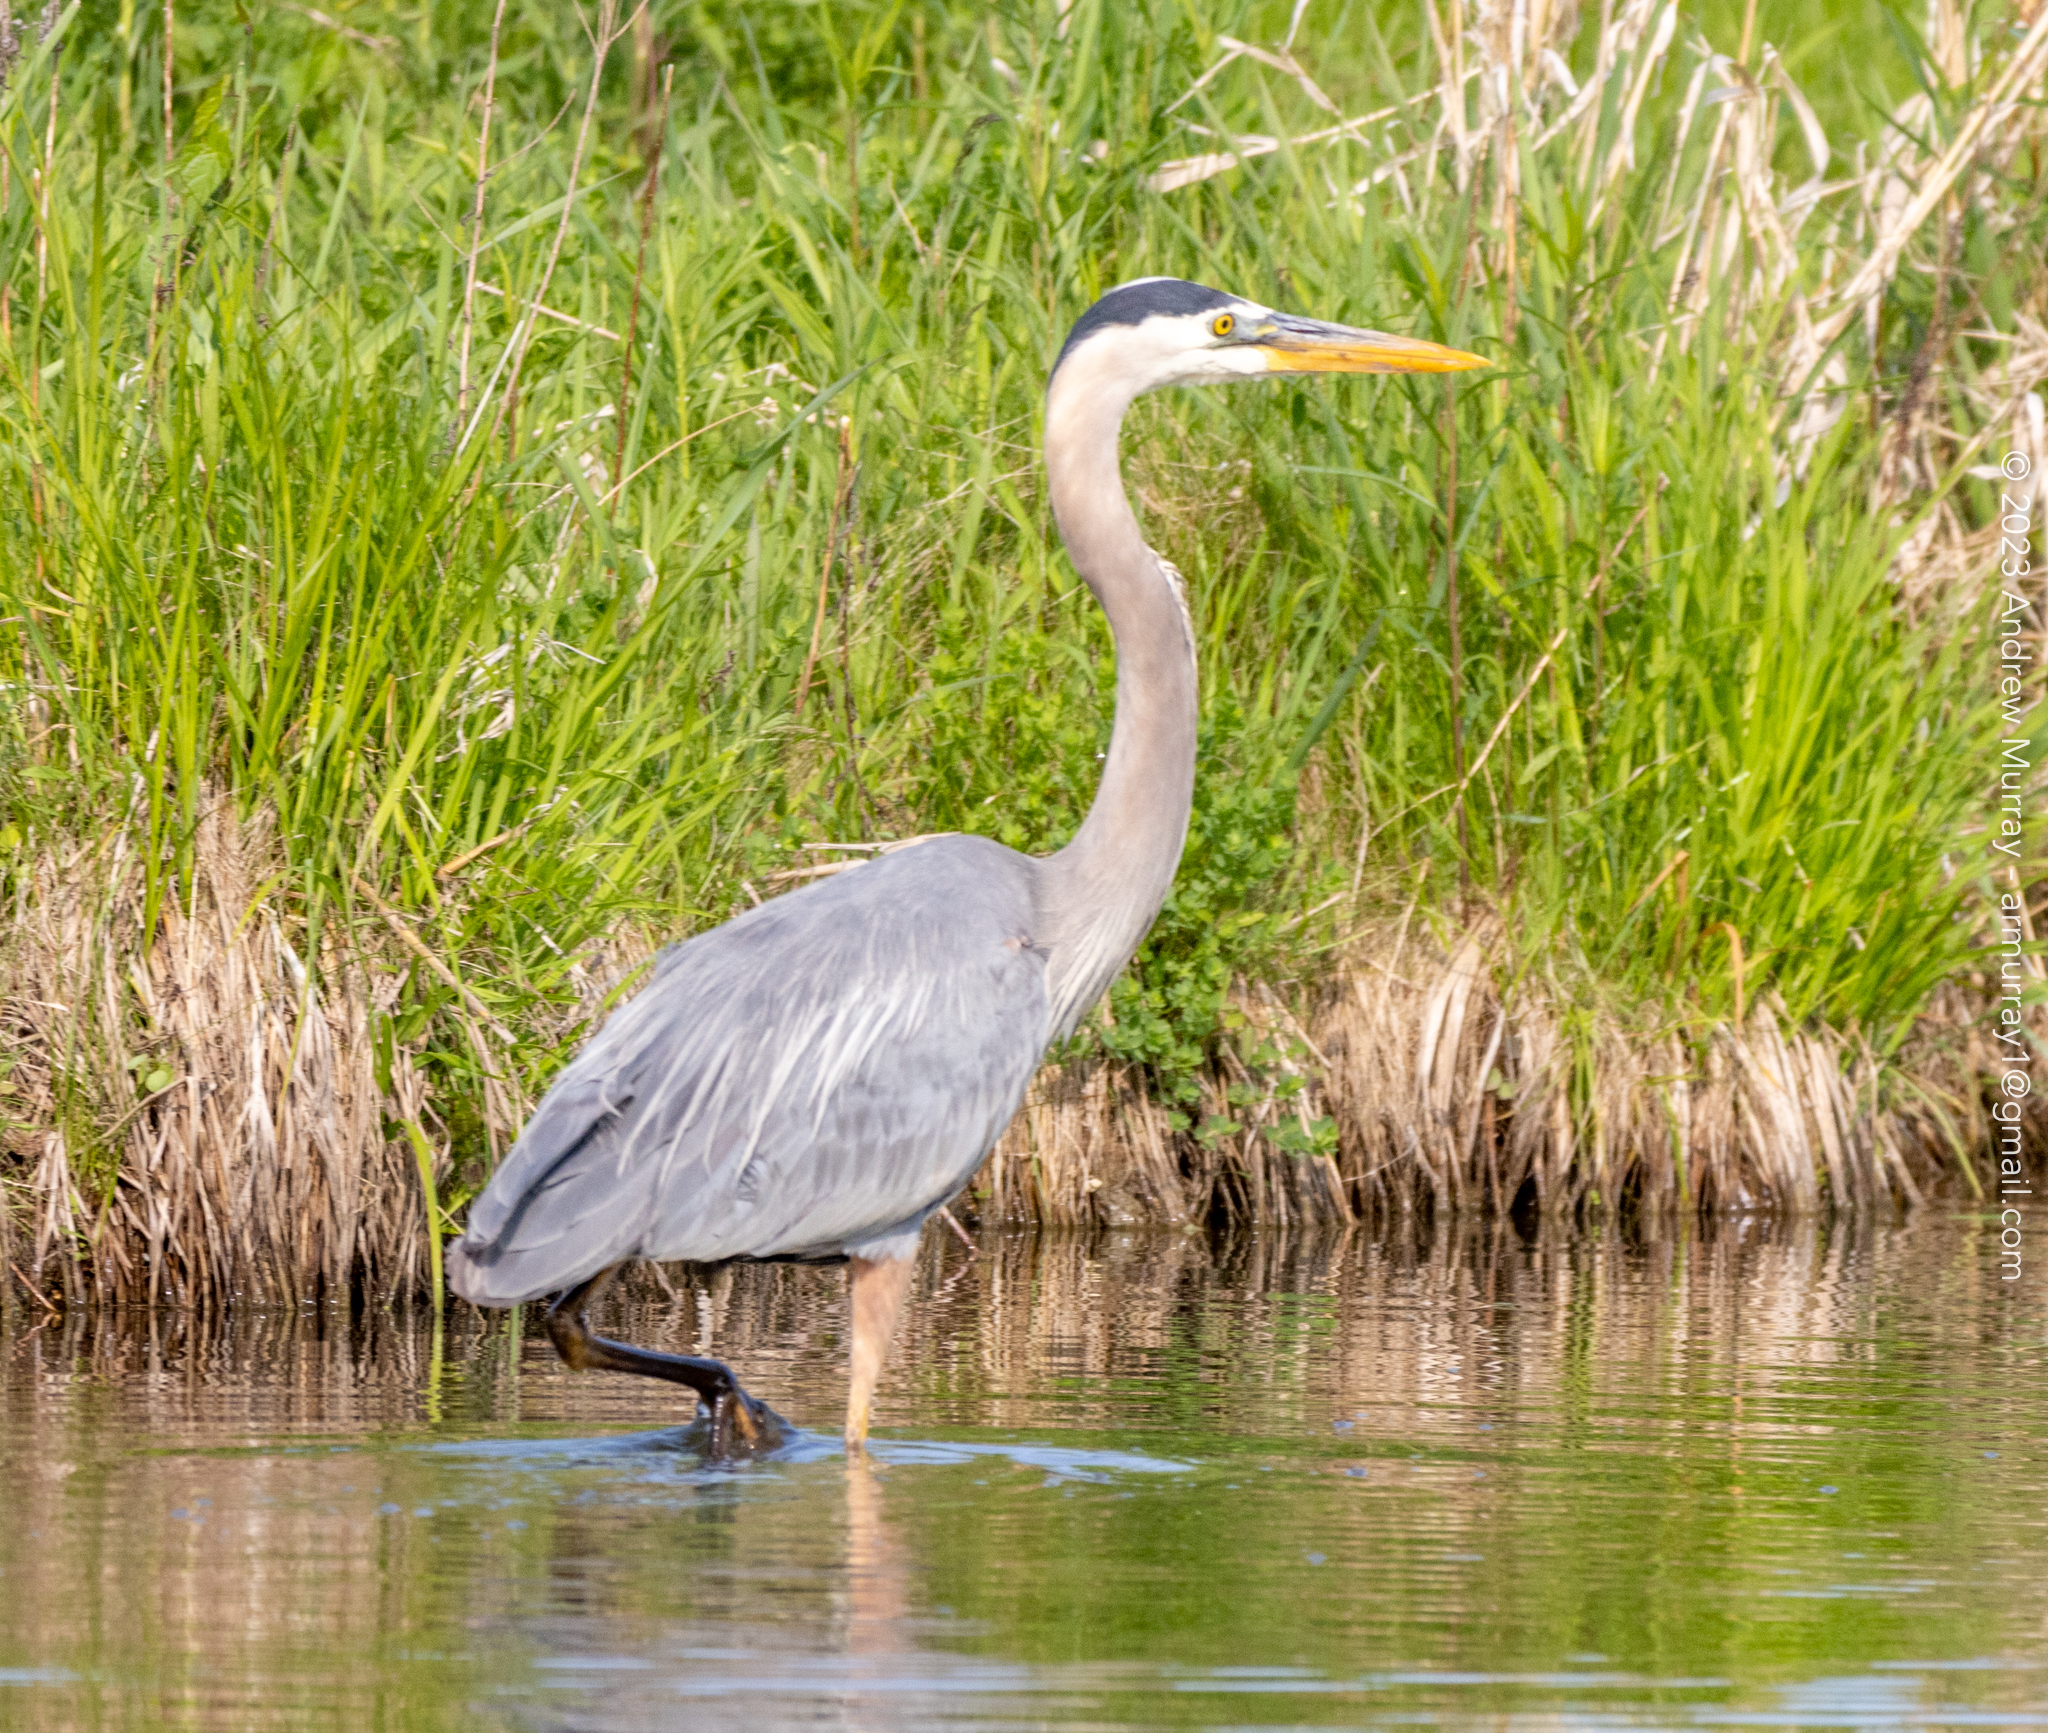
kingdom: Animalia
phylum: Chordata
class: Aves
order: Pelecaniformes
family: Ardeidae
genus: Ardea
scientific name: Ardea herodias
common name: Great blue heron
